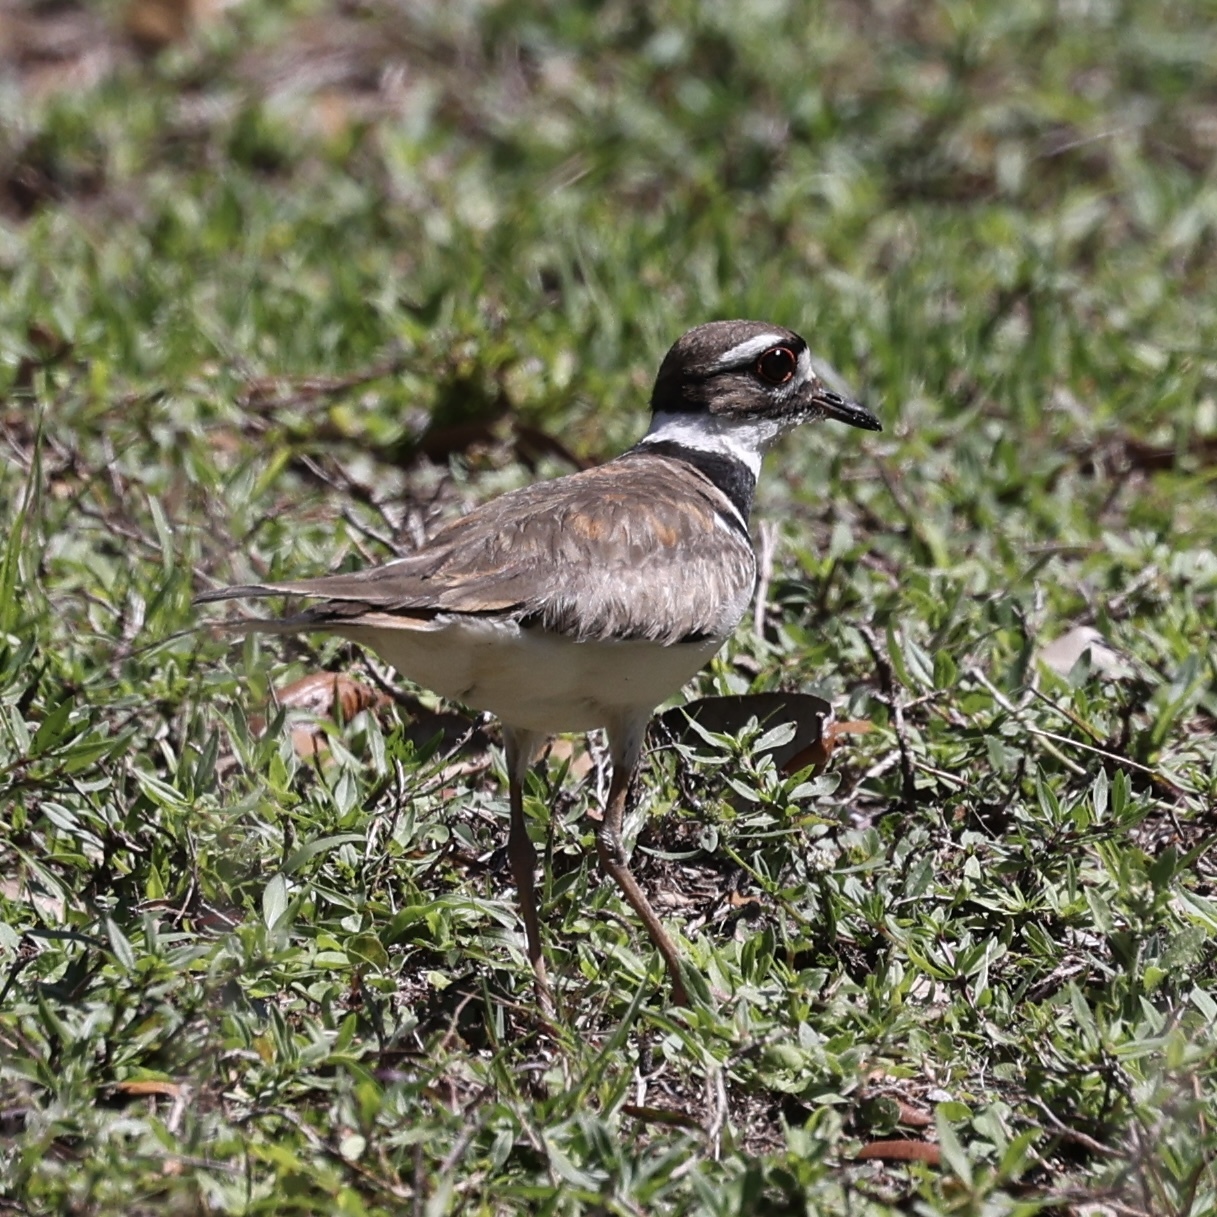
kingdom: Animalia
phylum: Chordata
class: Aves
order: Charadriiformes
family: Charadriidae
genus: Charadrius
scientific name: Charadrius vociferus
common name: Killdeer
